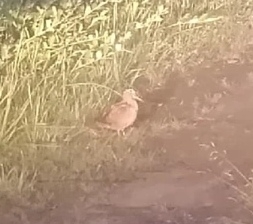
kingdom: Animalia
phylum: Chordata
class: Aves
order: Charadriiformes
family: Scolopacidae
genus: Scolopax
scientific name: Scolopax rusticola
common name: Eurasian woodcock
